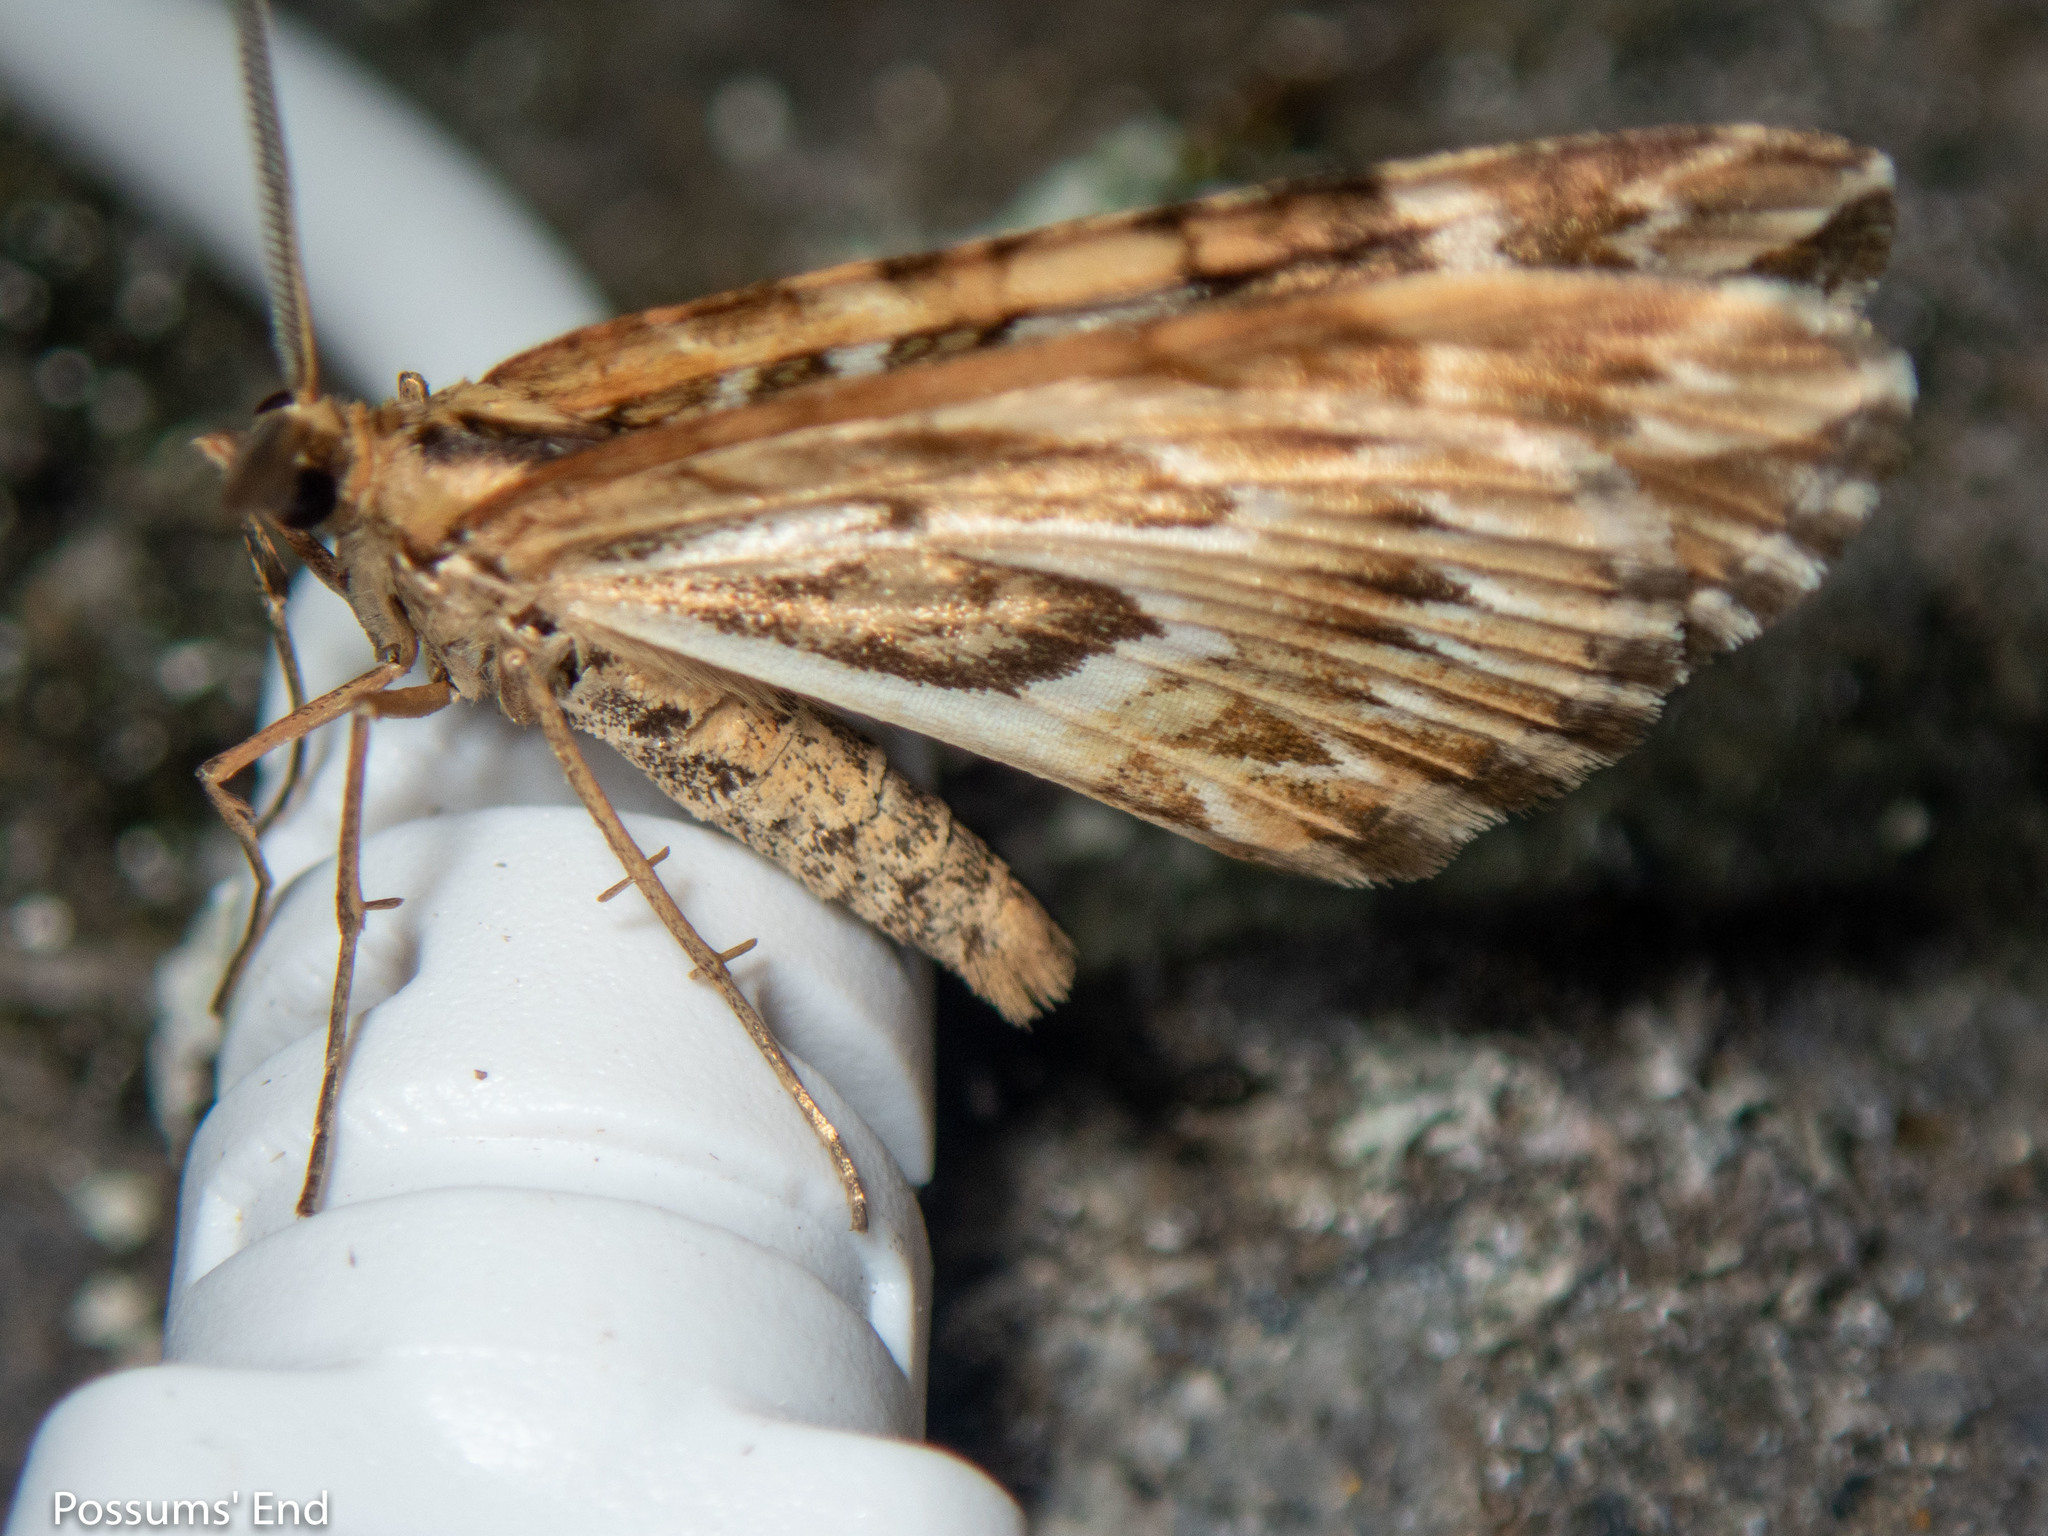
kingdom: Animalia
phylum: Arthropoda
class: Insecta
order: Lepidoptera
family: Geometridae
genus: Asaphodes
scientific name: Asaphodes clarata
